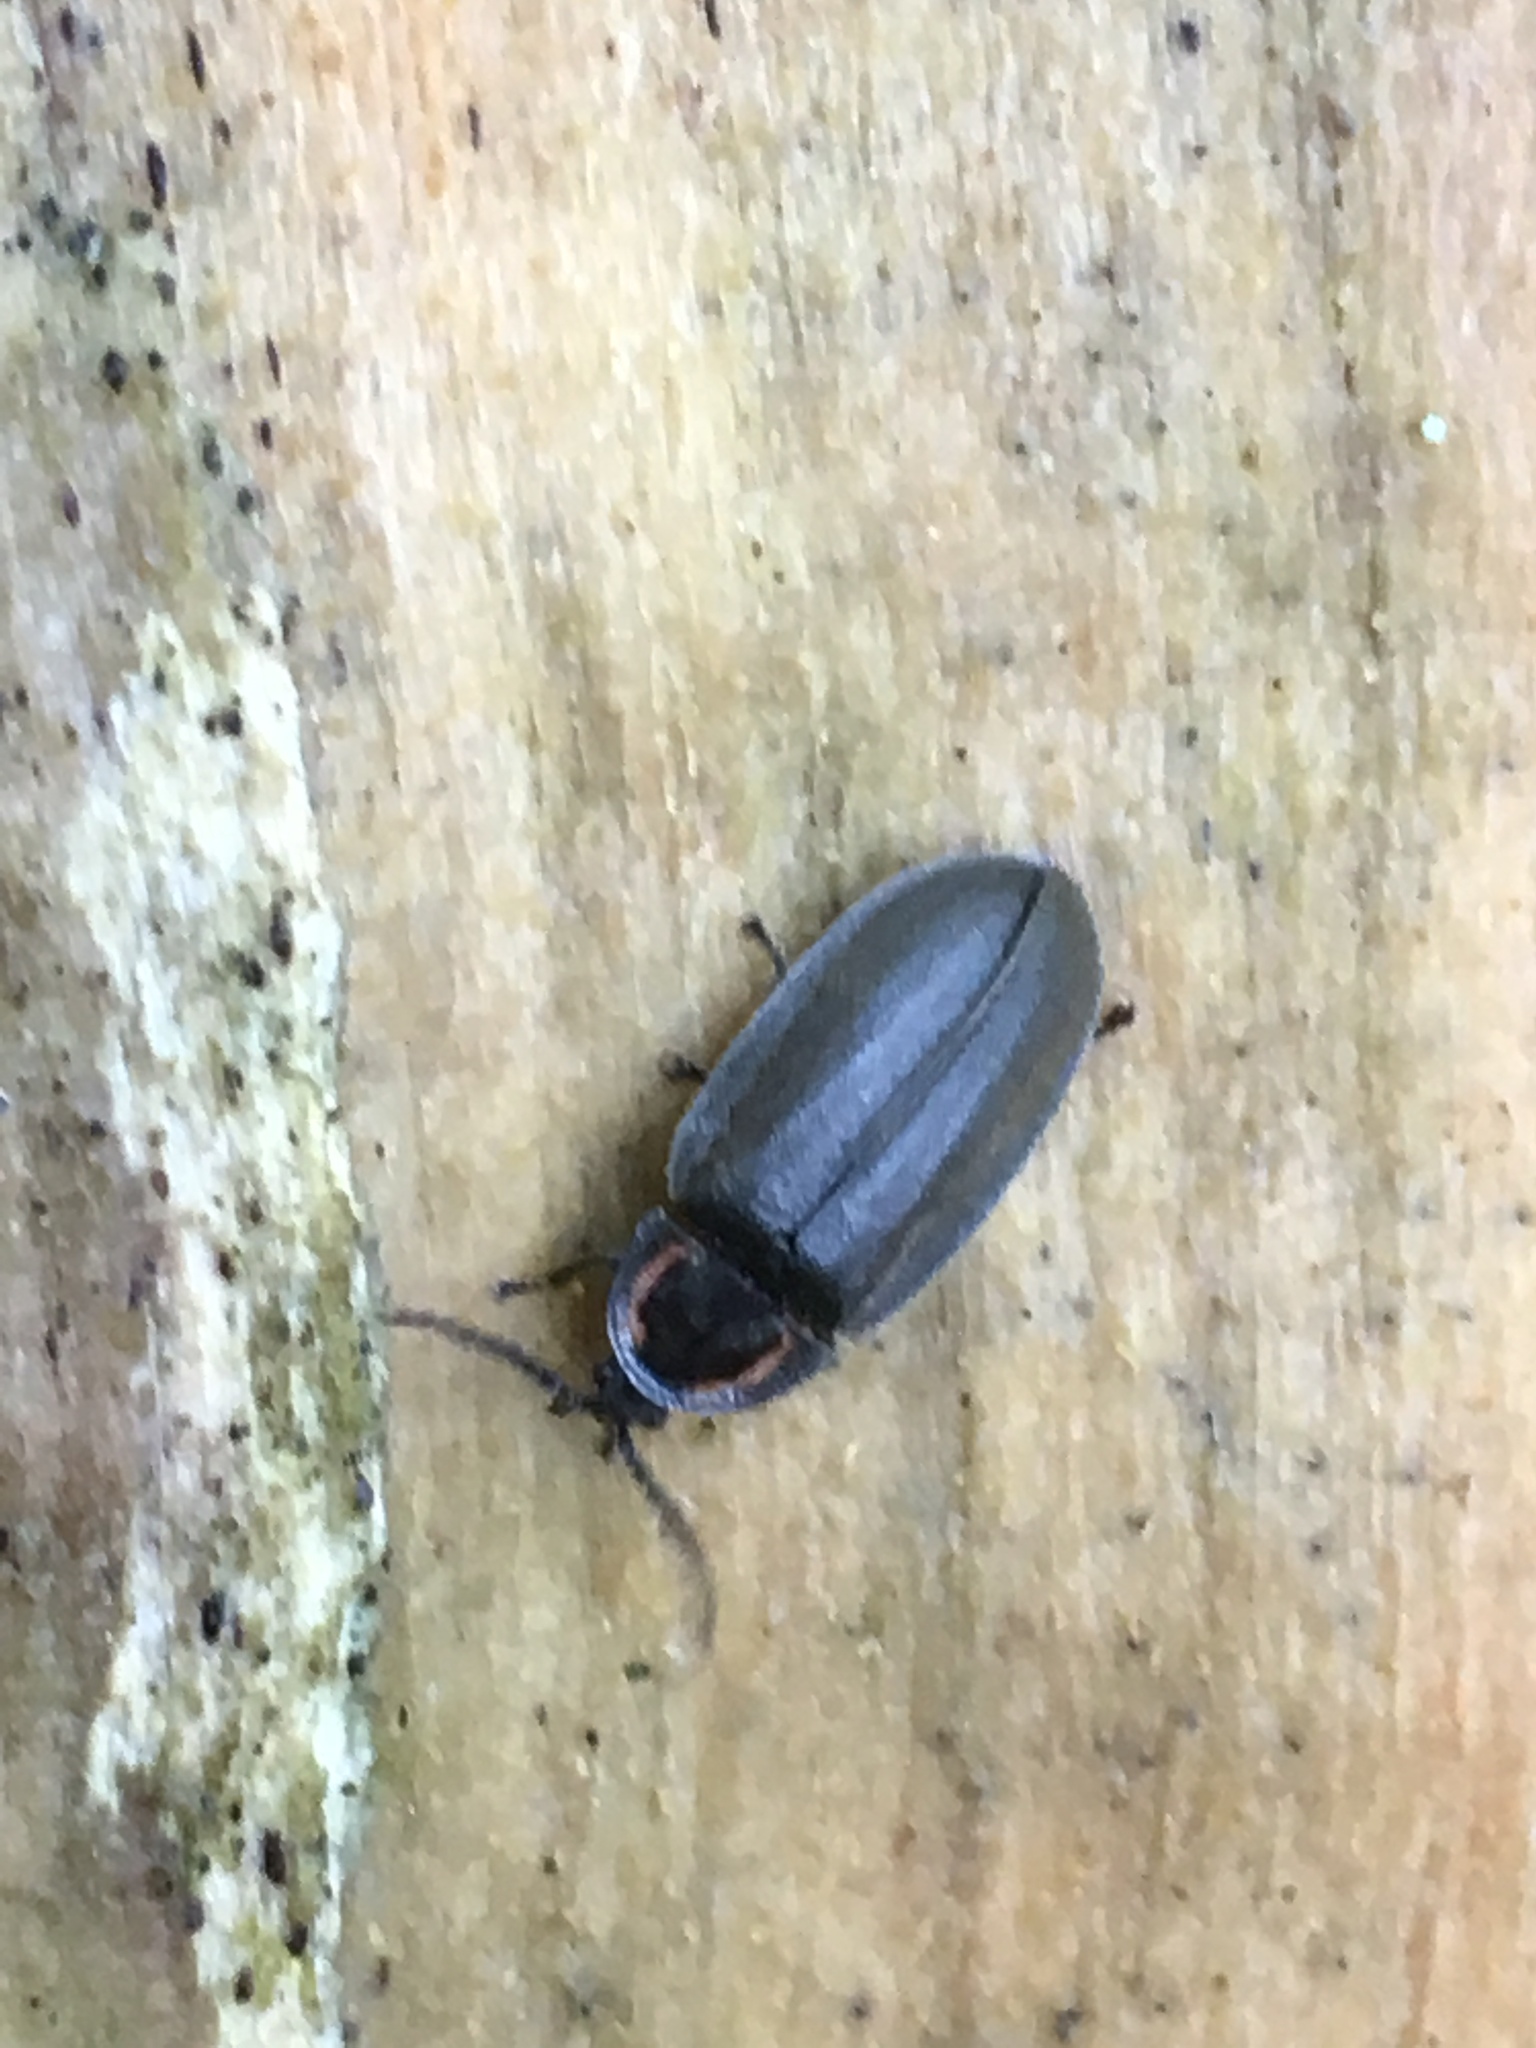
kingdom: Animalia
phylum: Arthropoda
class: Insecta
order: Coleoptera
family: Lampyridae
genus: Photinus
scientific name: Photinus corrusca
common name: Winter firefly
